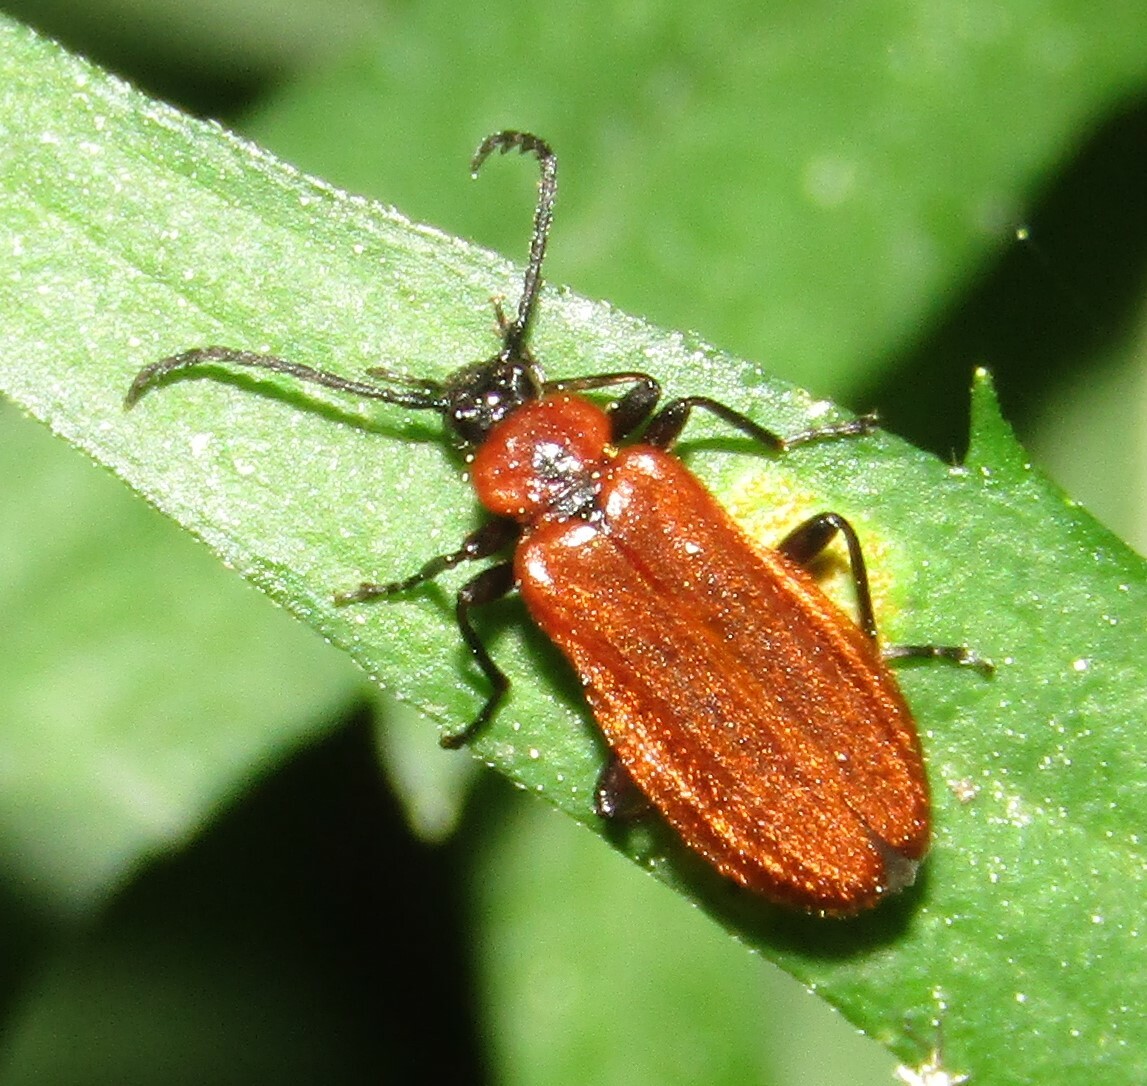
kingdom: Animalia
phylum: Arthropoda
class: Insecta
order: Coleoptera
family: Pyrochroidae
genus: Schizotus
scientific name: Schizotus pectinicornis
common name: Scarce cardinal beetle
